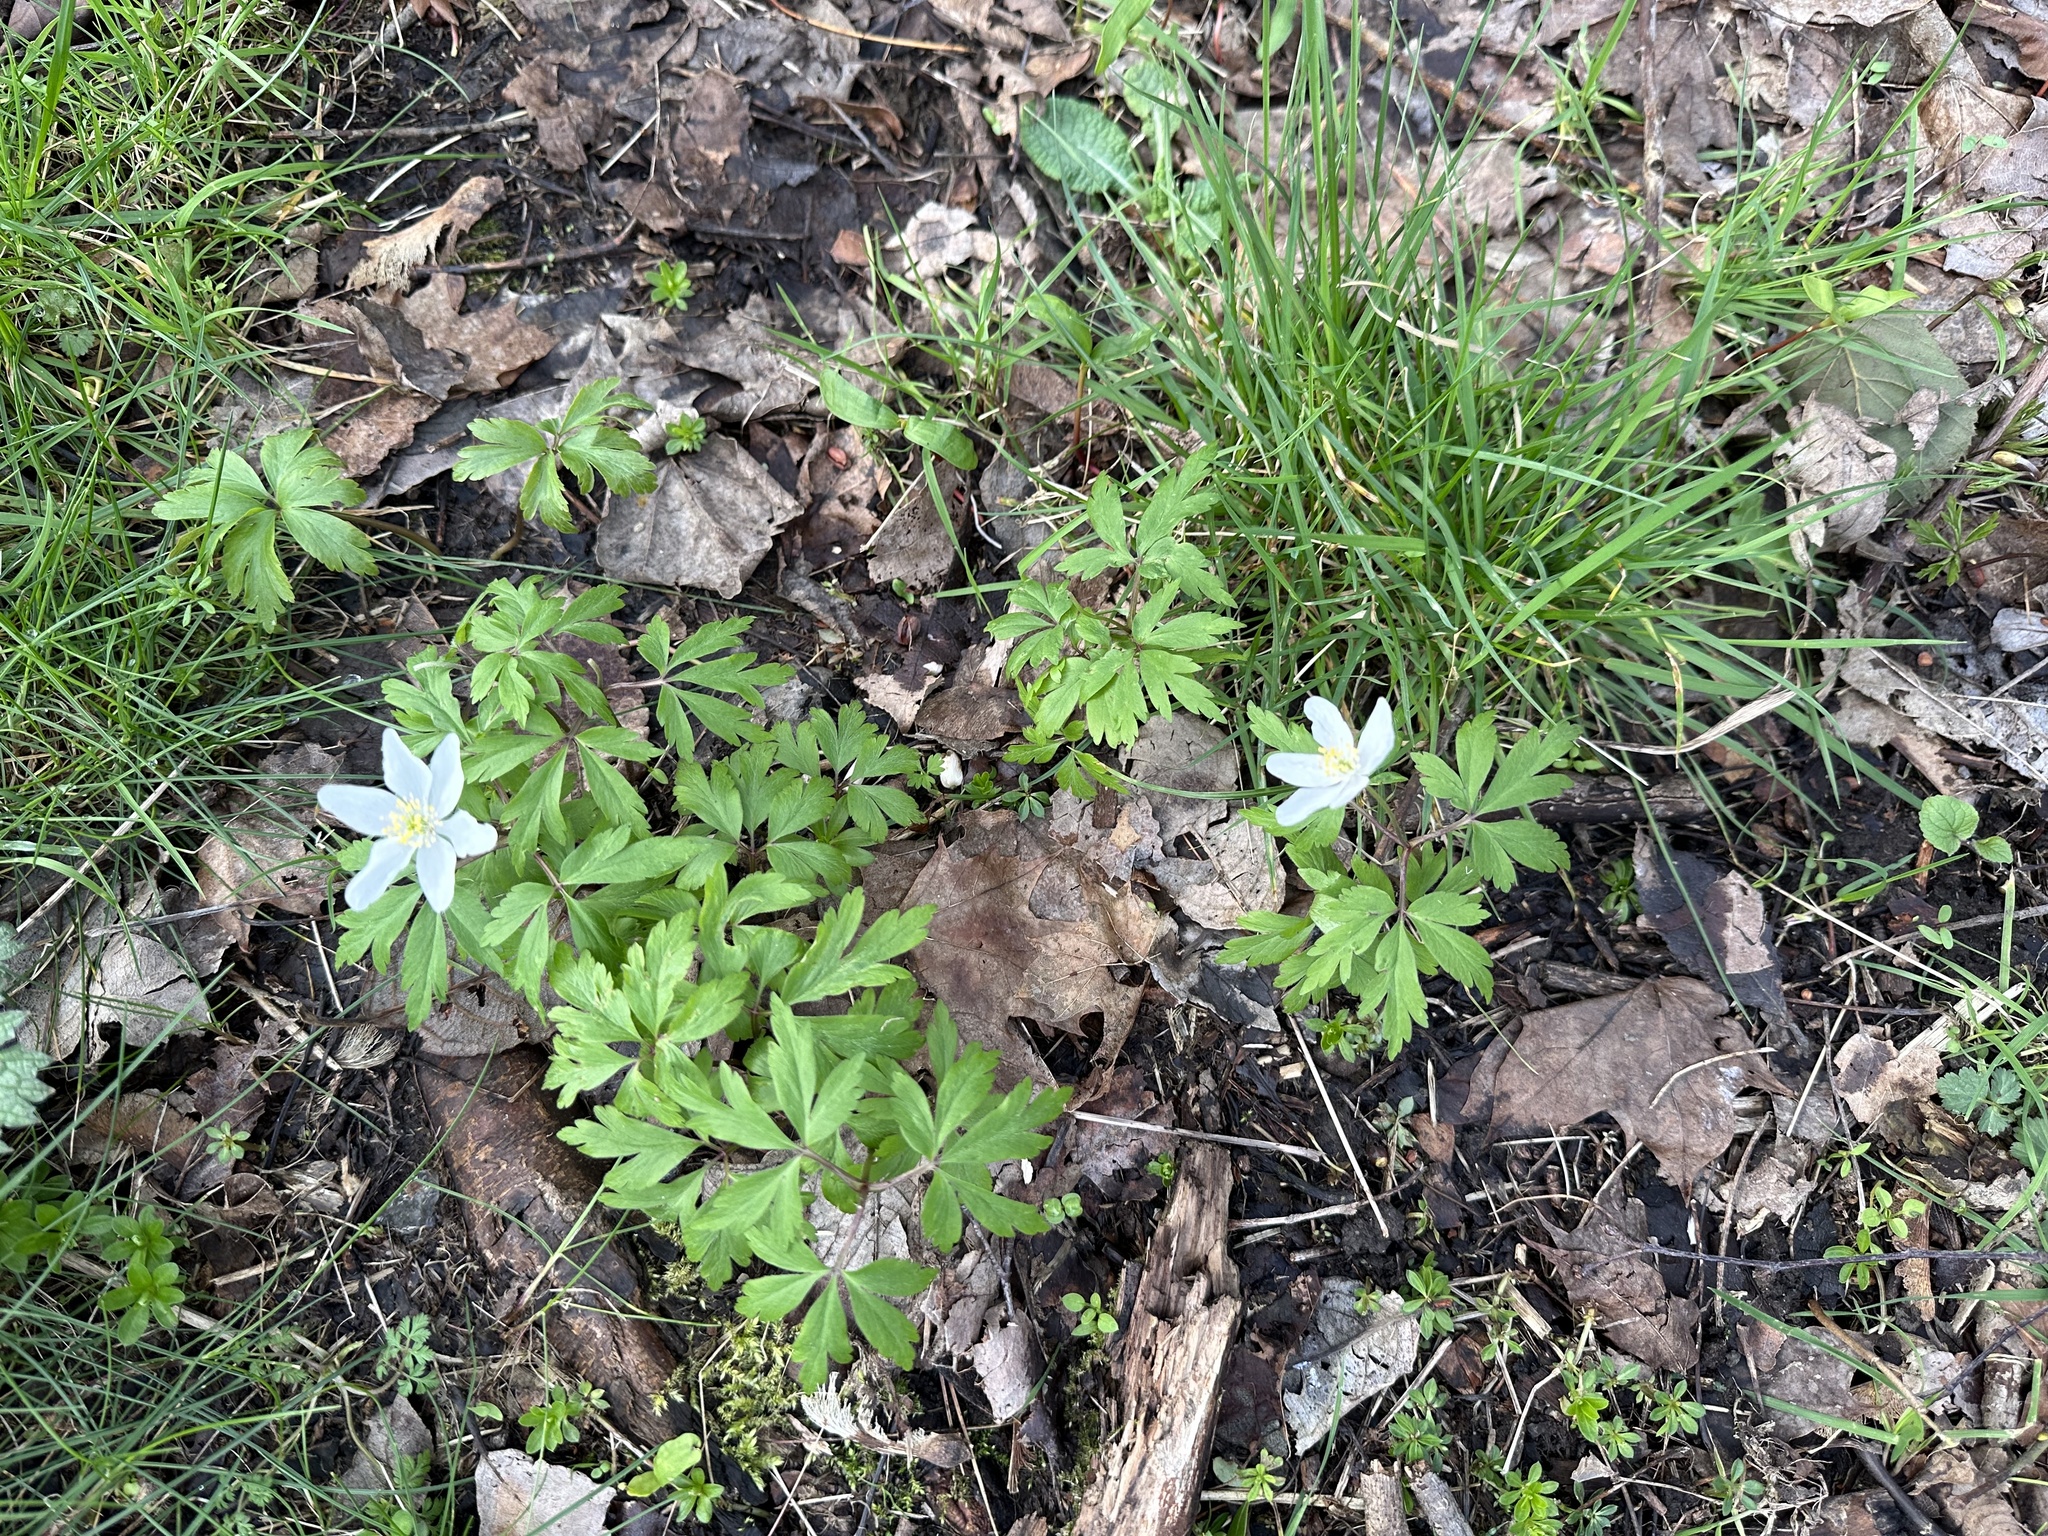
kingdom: Plantae
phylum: Tracheophyta
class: Magnoliopsida
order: Ranunculales
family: Ranunculaceae
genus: Anemone
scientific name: Anemone nemorosa
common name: Wood anemone
